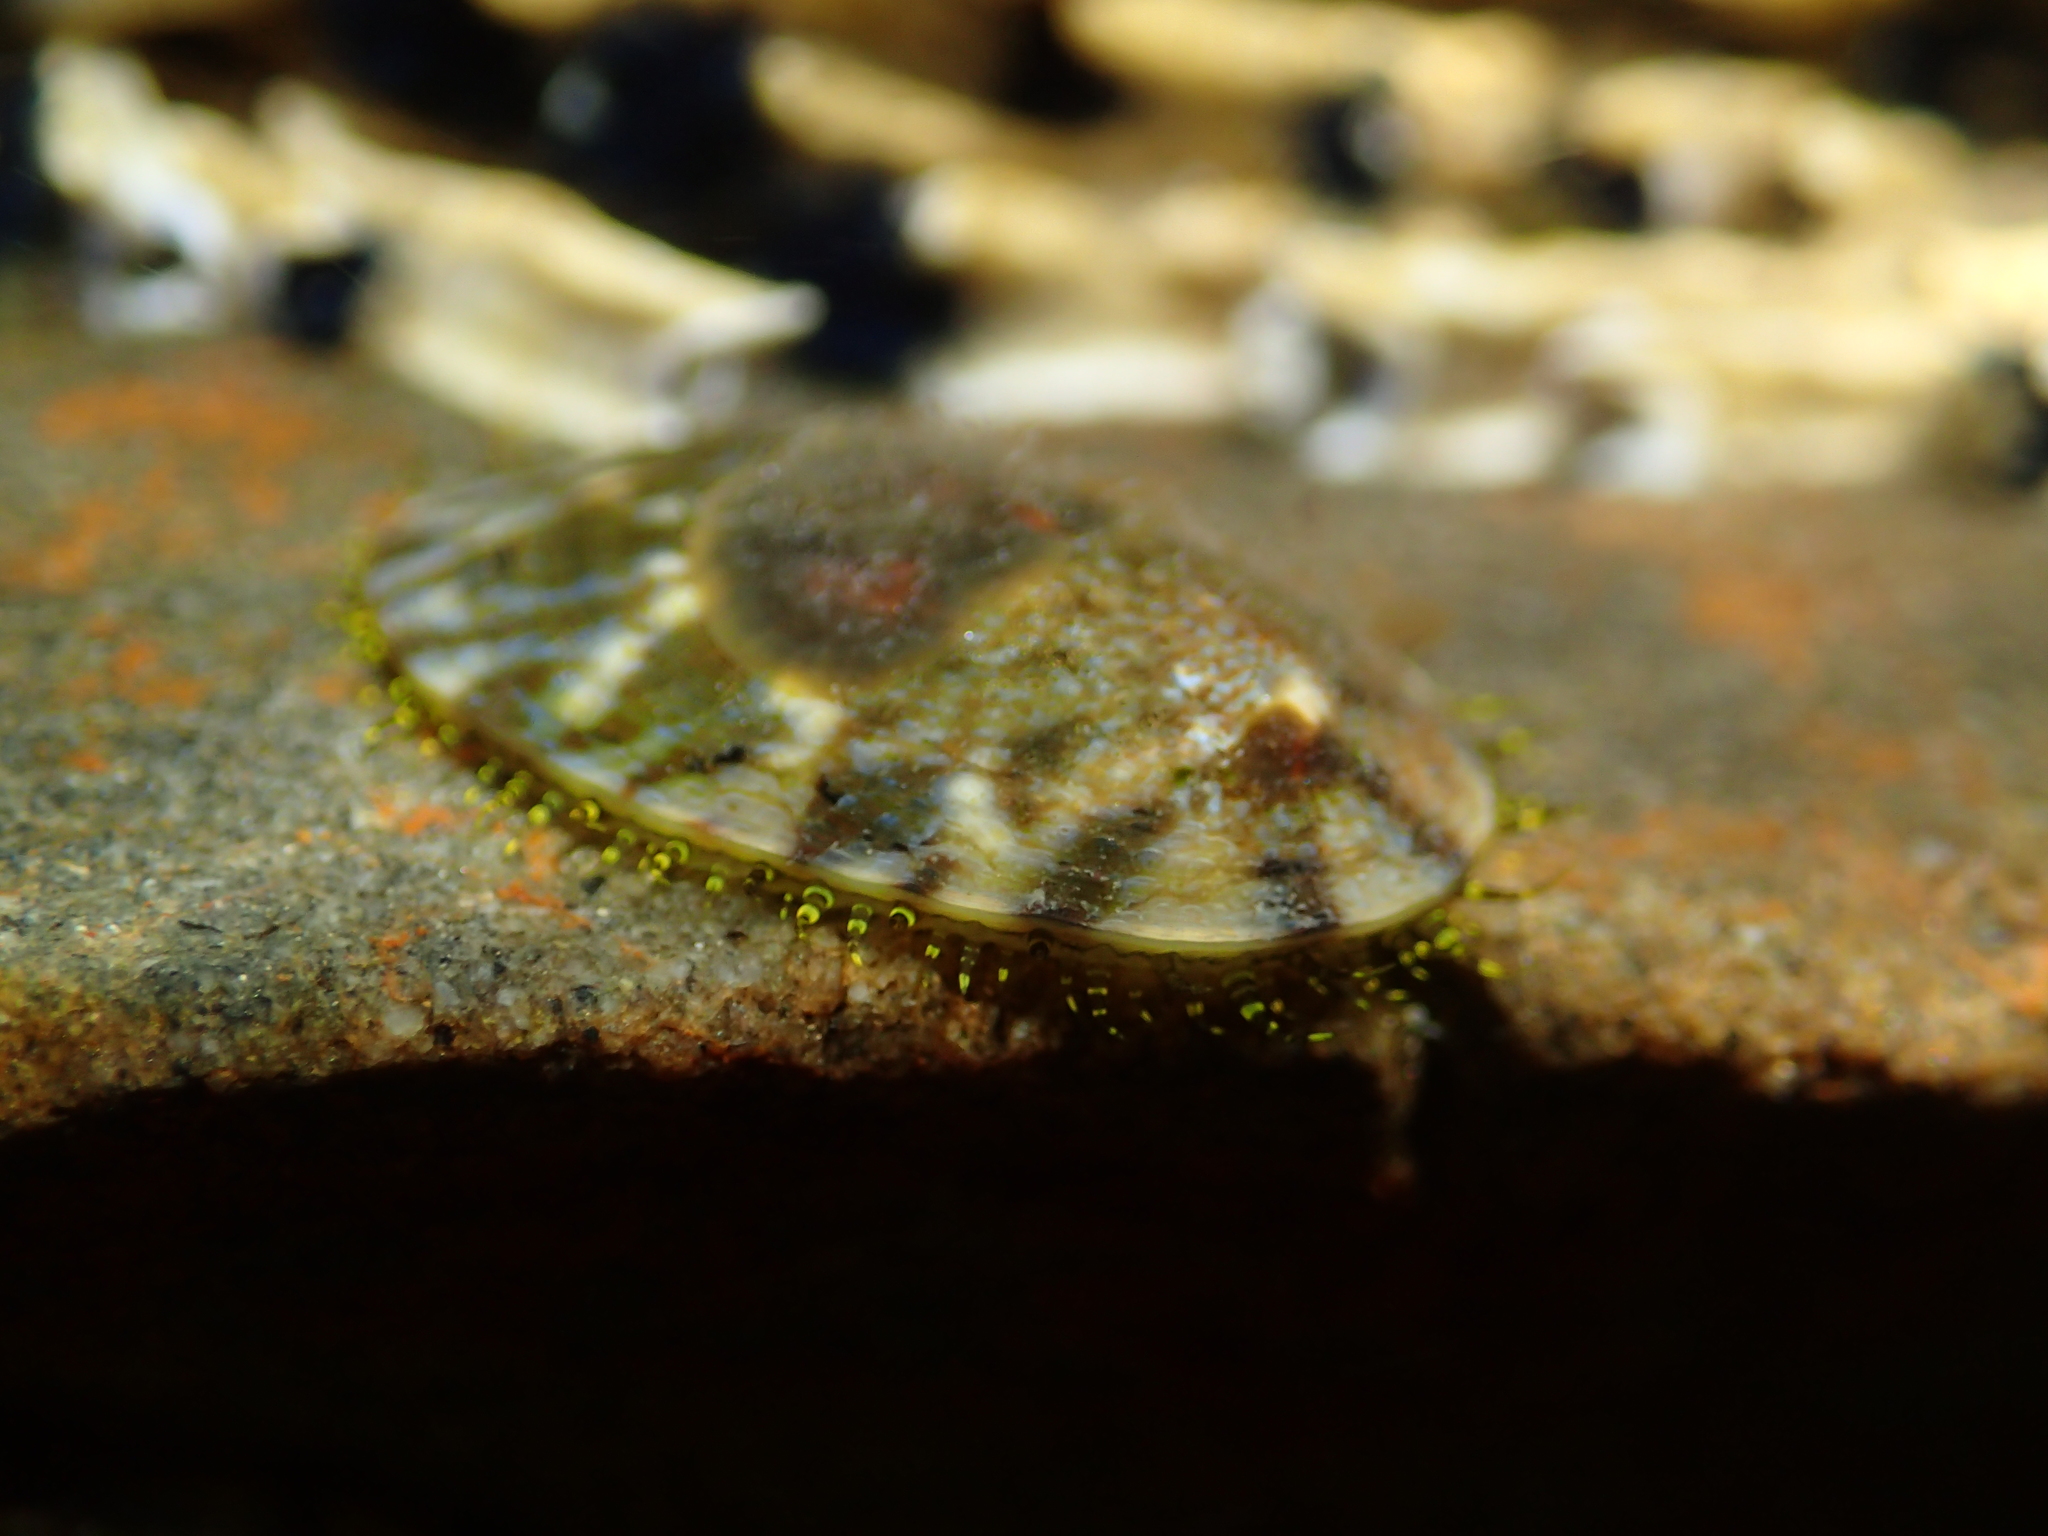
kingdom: Animalia
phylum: Mollusca
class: Gastropoda
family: Nacellidae
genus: Cellana
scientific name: Cellana radians
